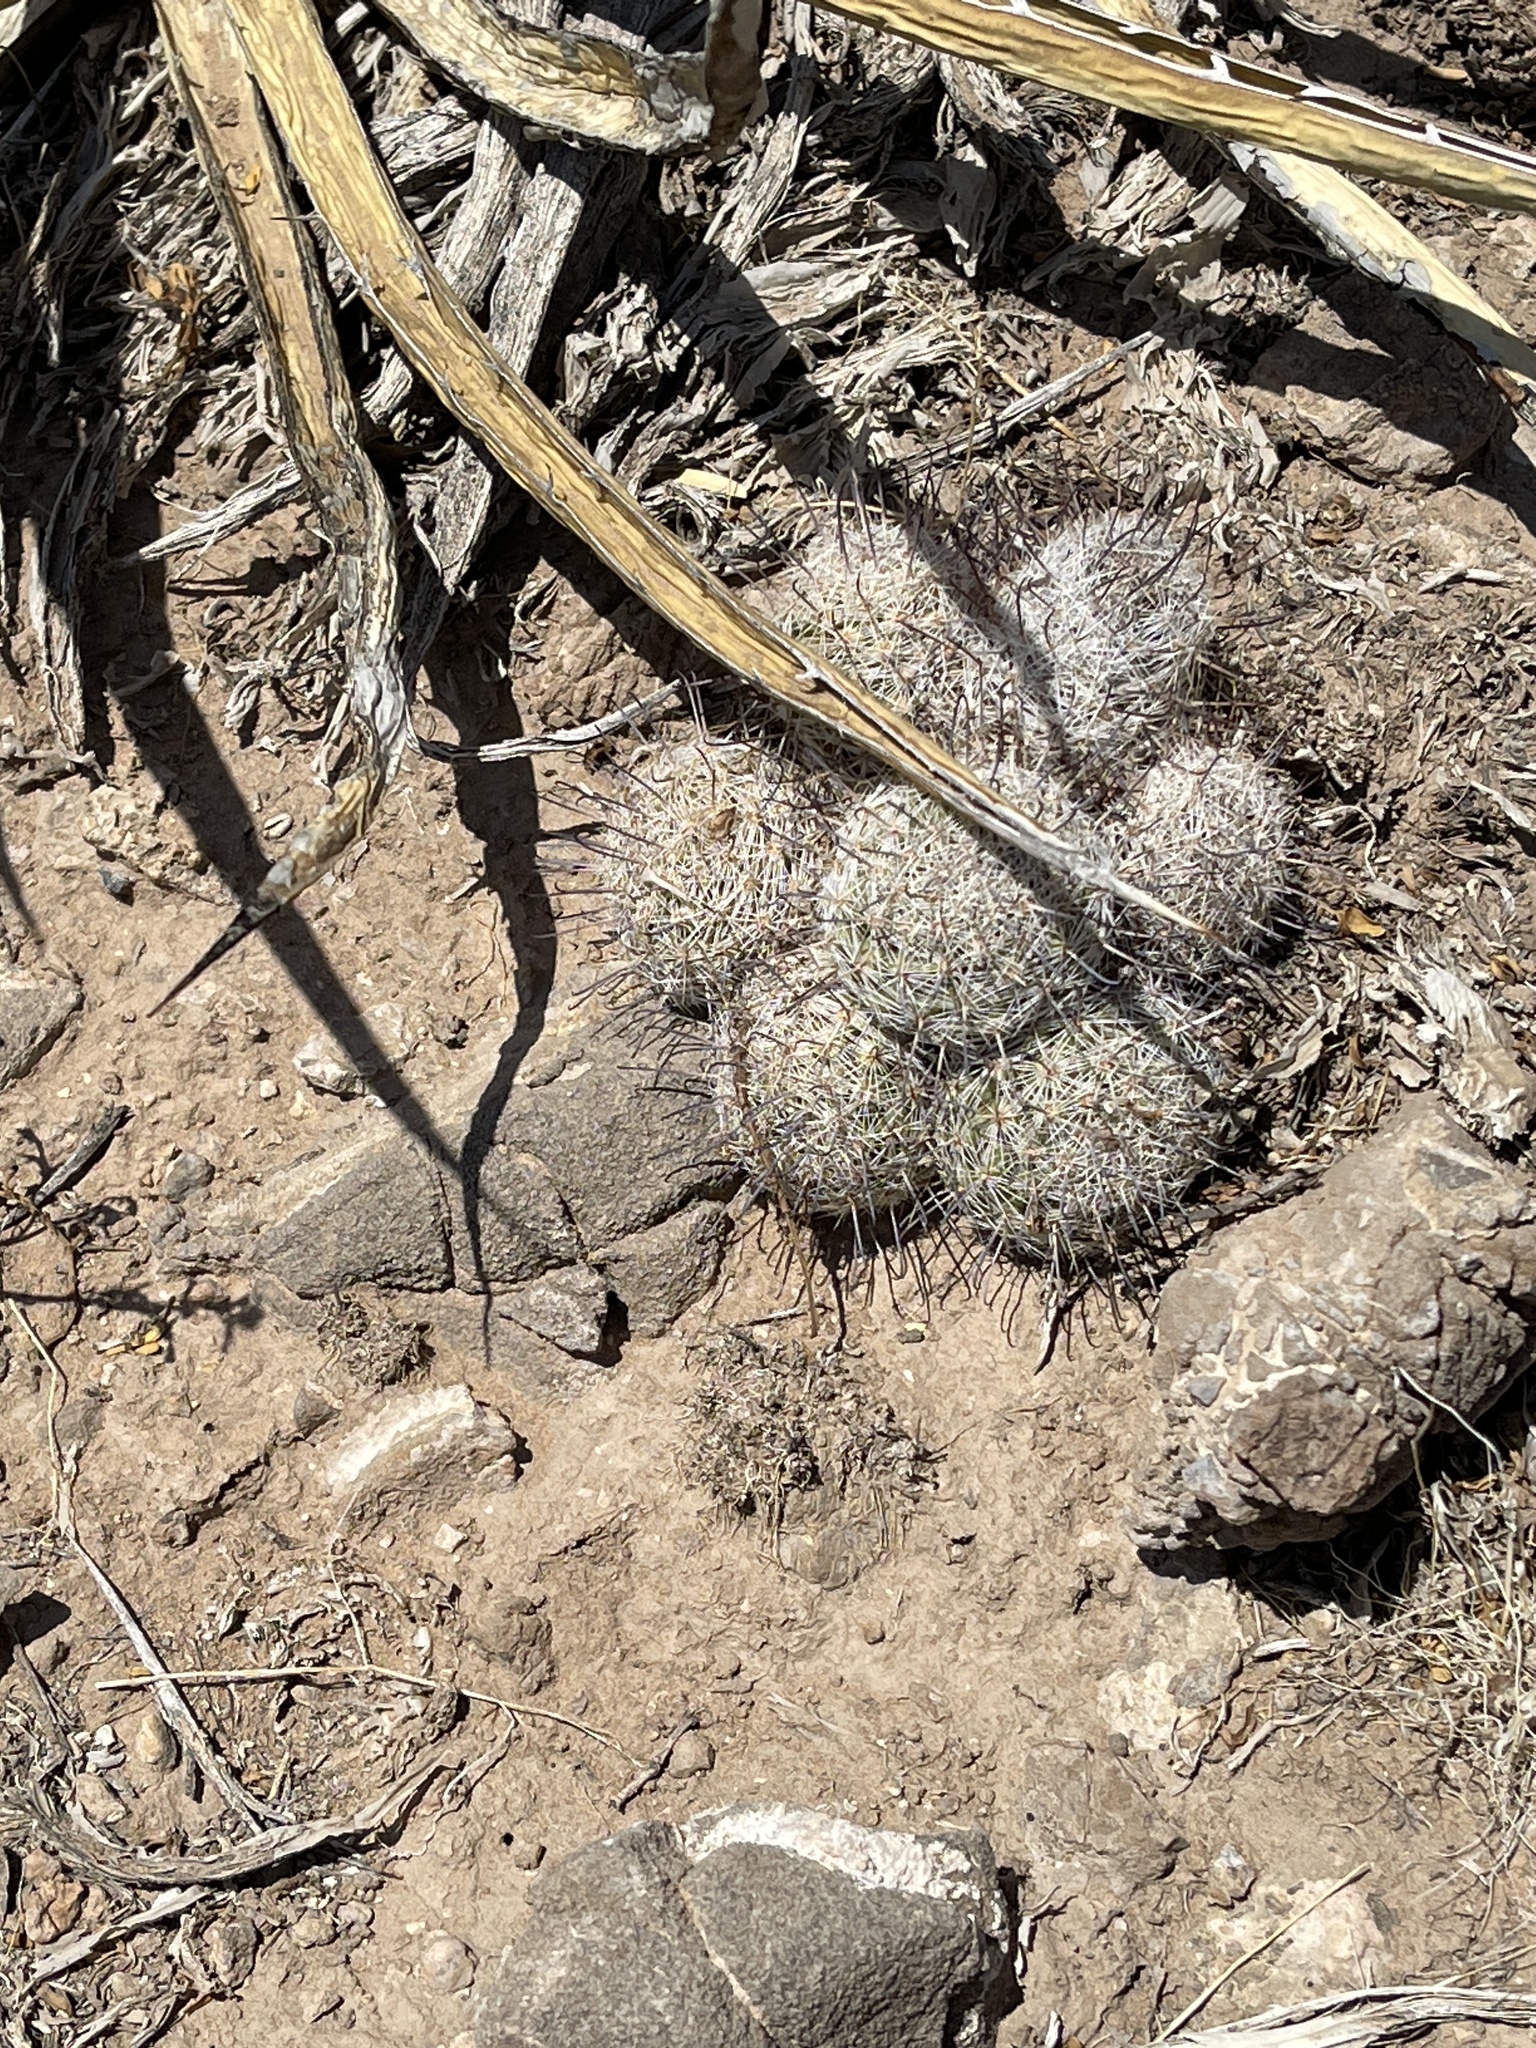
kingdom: Plantae
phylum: Tracheophyta
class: Magnoliopsida
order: Caryophyllales
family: Cactaceae
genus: Cochemiea
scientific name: Cochemiea grahamii
